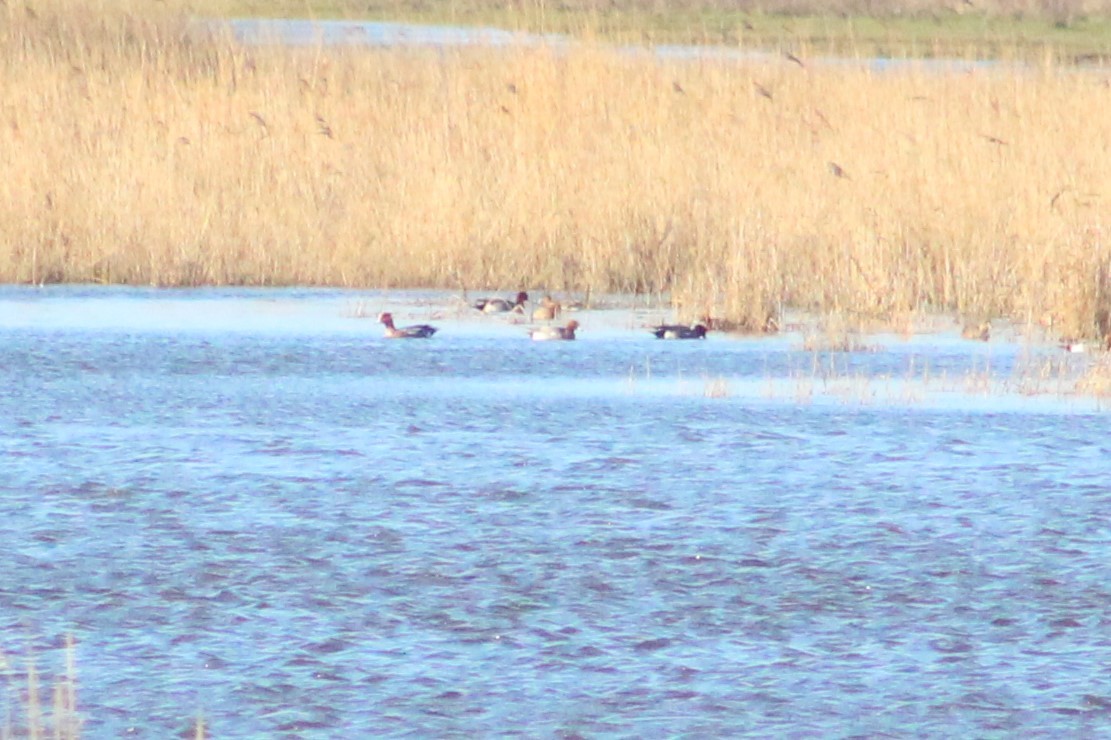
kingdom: Animalia
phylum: Chordata
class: Aves
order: Anseriformes
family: Anatidae
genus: Mareca
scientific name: Mareca penelope
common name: Eurasian wigeon
